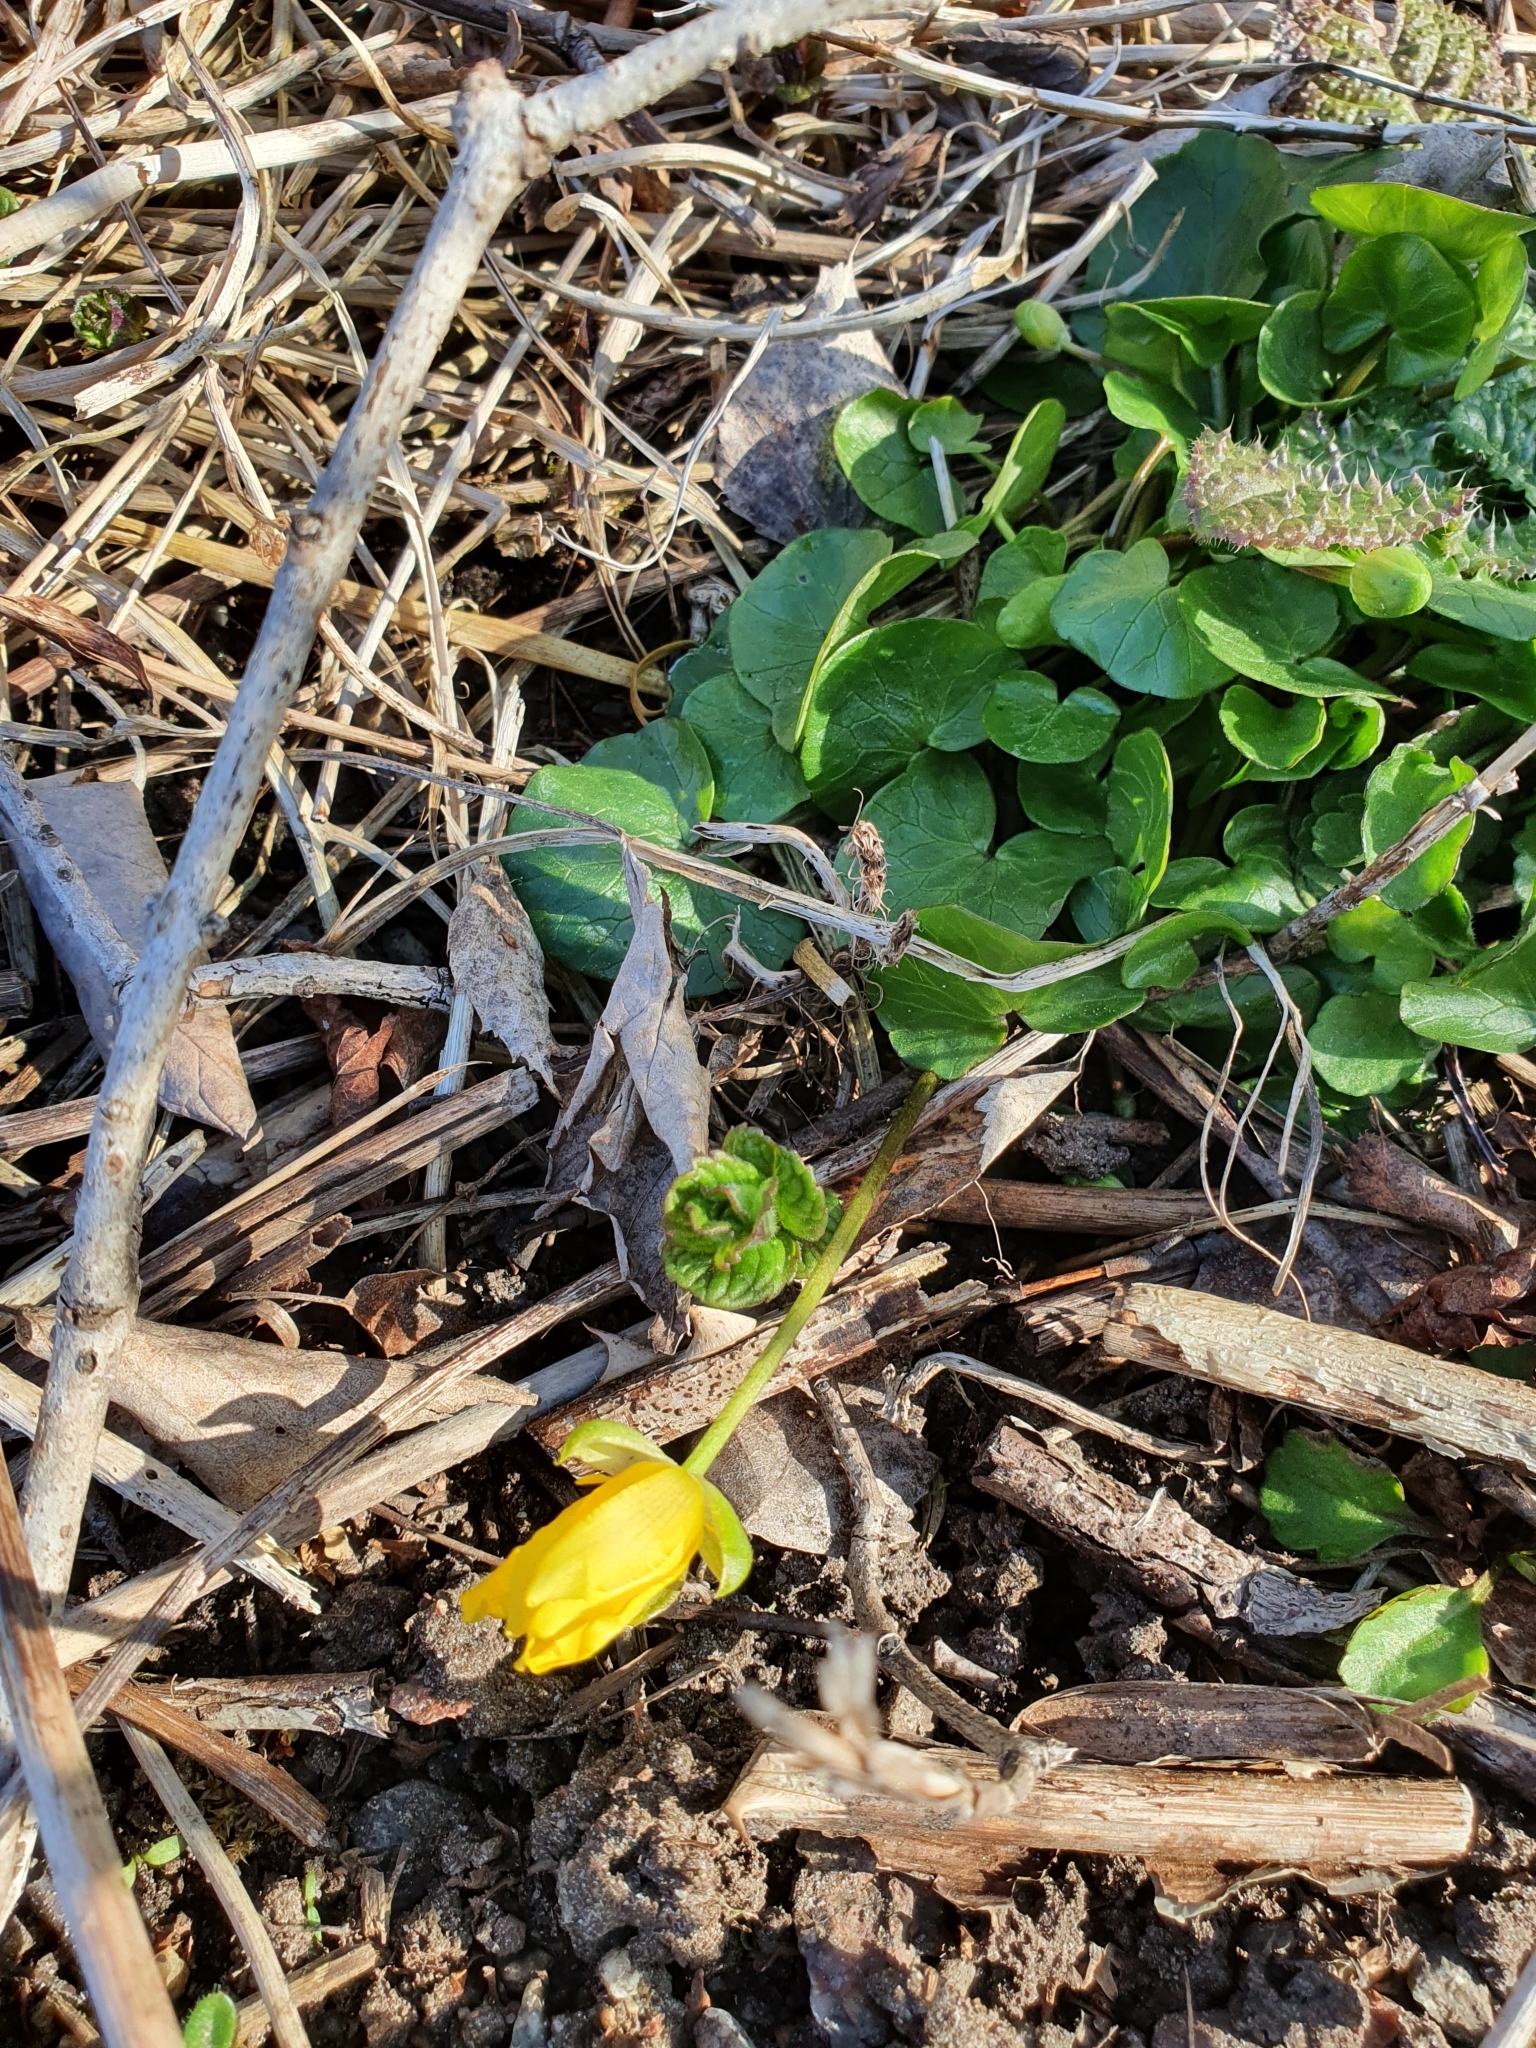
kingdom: Plantae
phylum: Tracheophyta
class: Magnoliopsida
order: Ranunculales
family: Ranunculaceae
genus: Ficaria
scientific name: Ficaria verna
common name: Lesser celandine
